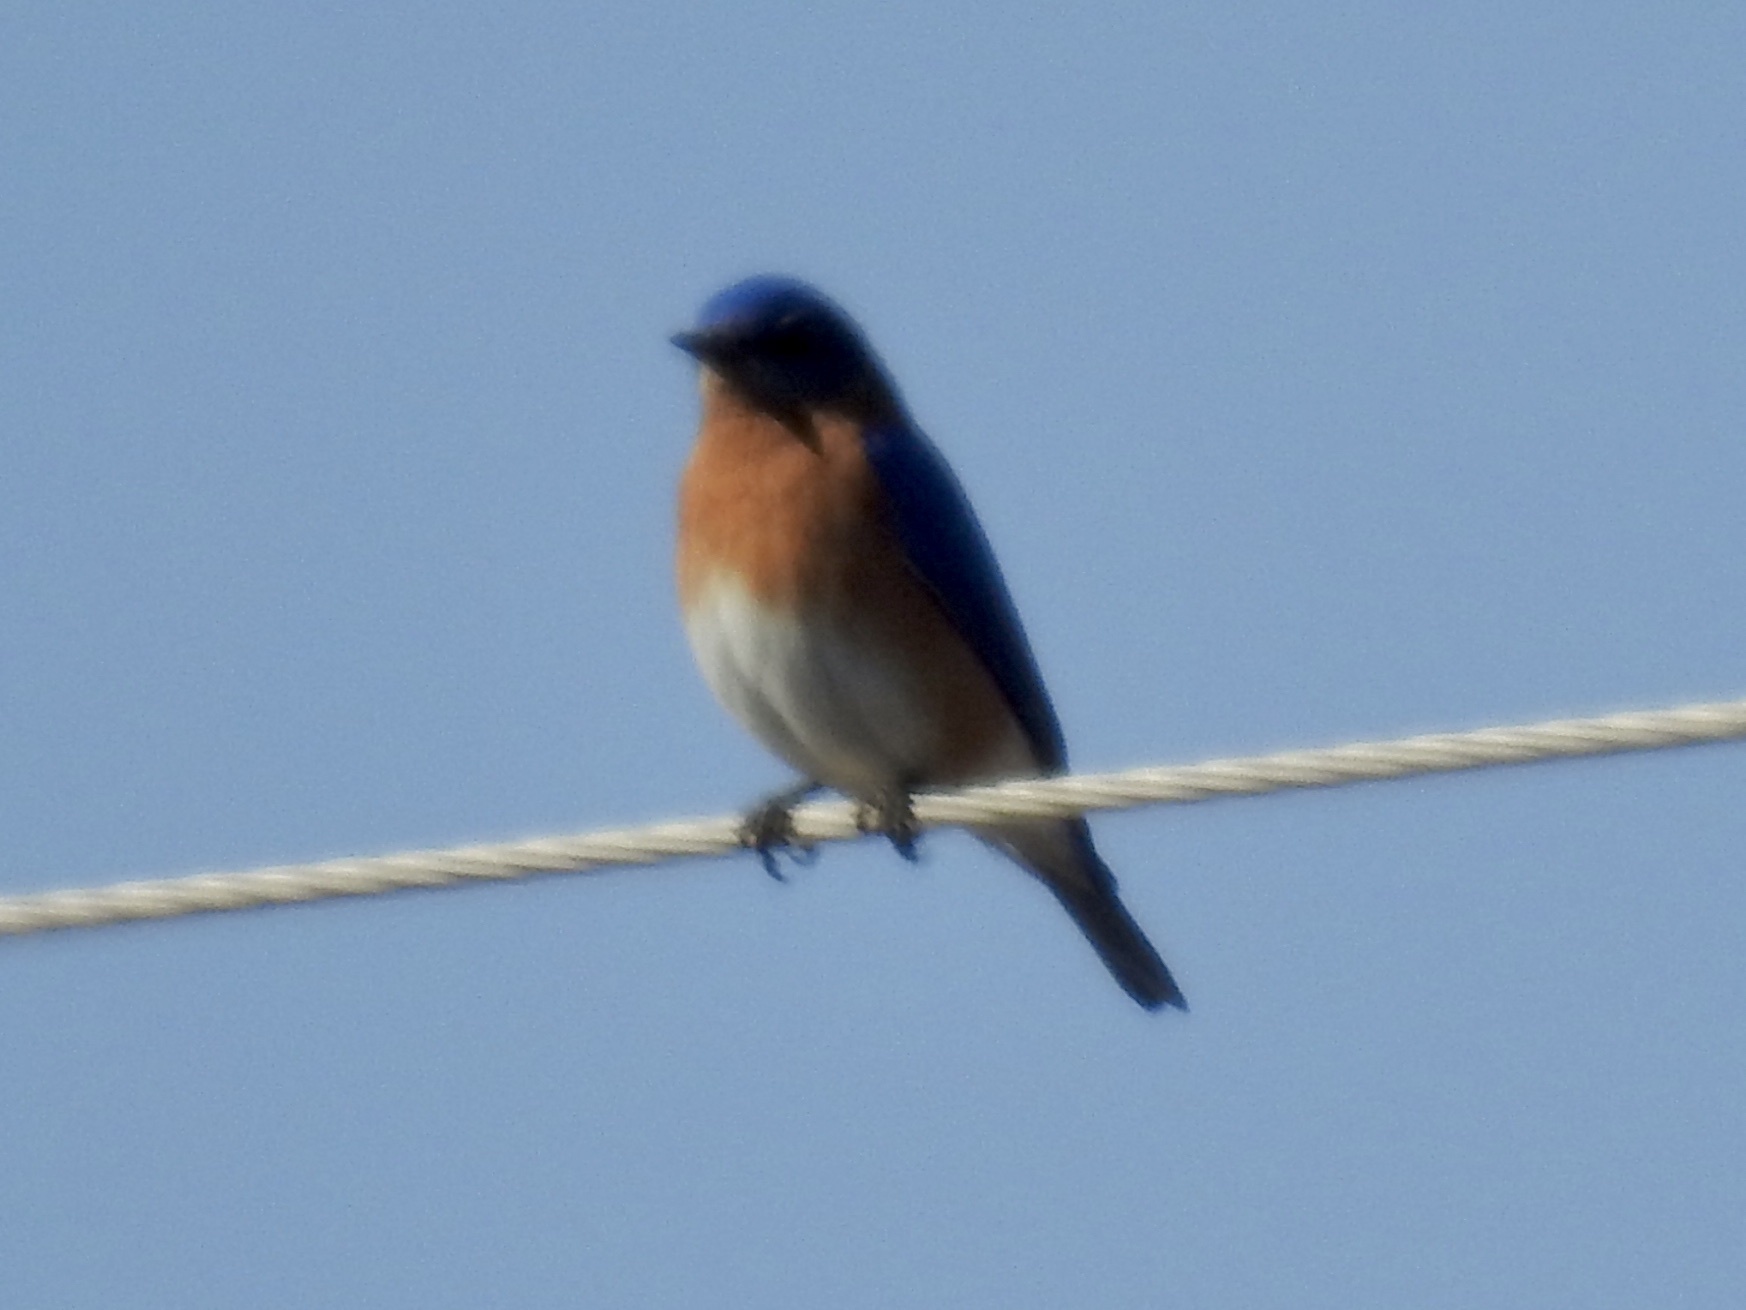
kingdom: Animalia
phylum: Chordata
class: Aves
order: Passeriformes
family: Turdidae
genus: Sialia
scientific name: Sialia sialis
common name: Eastern bluebird
